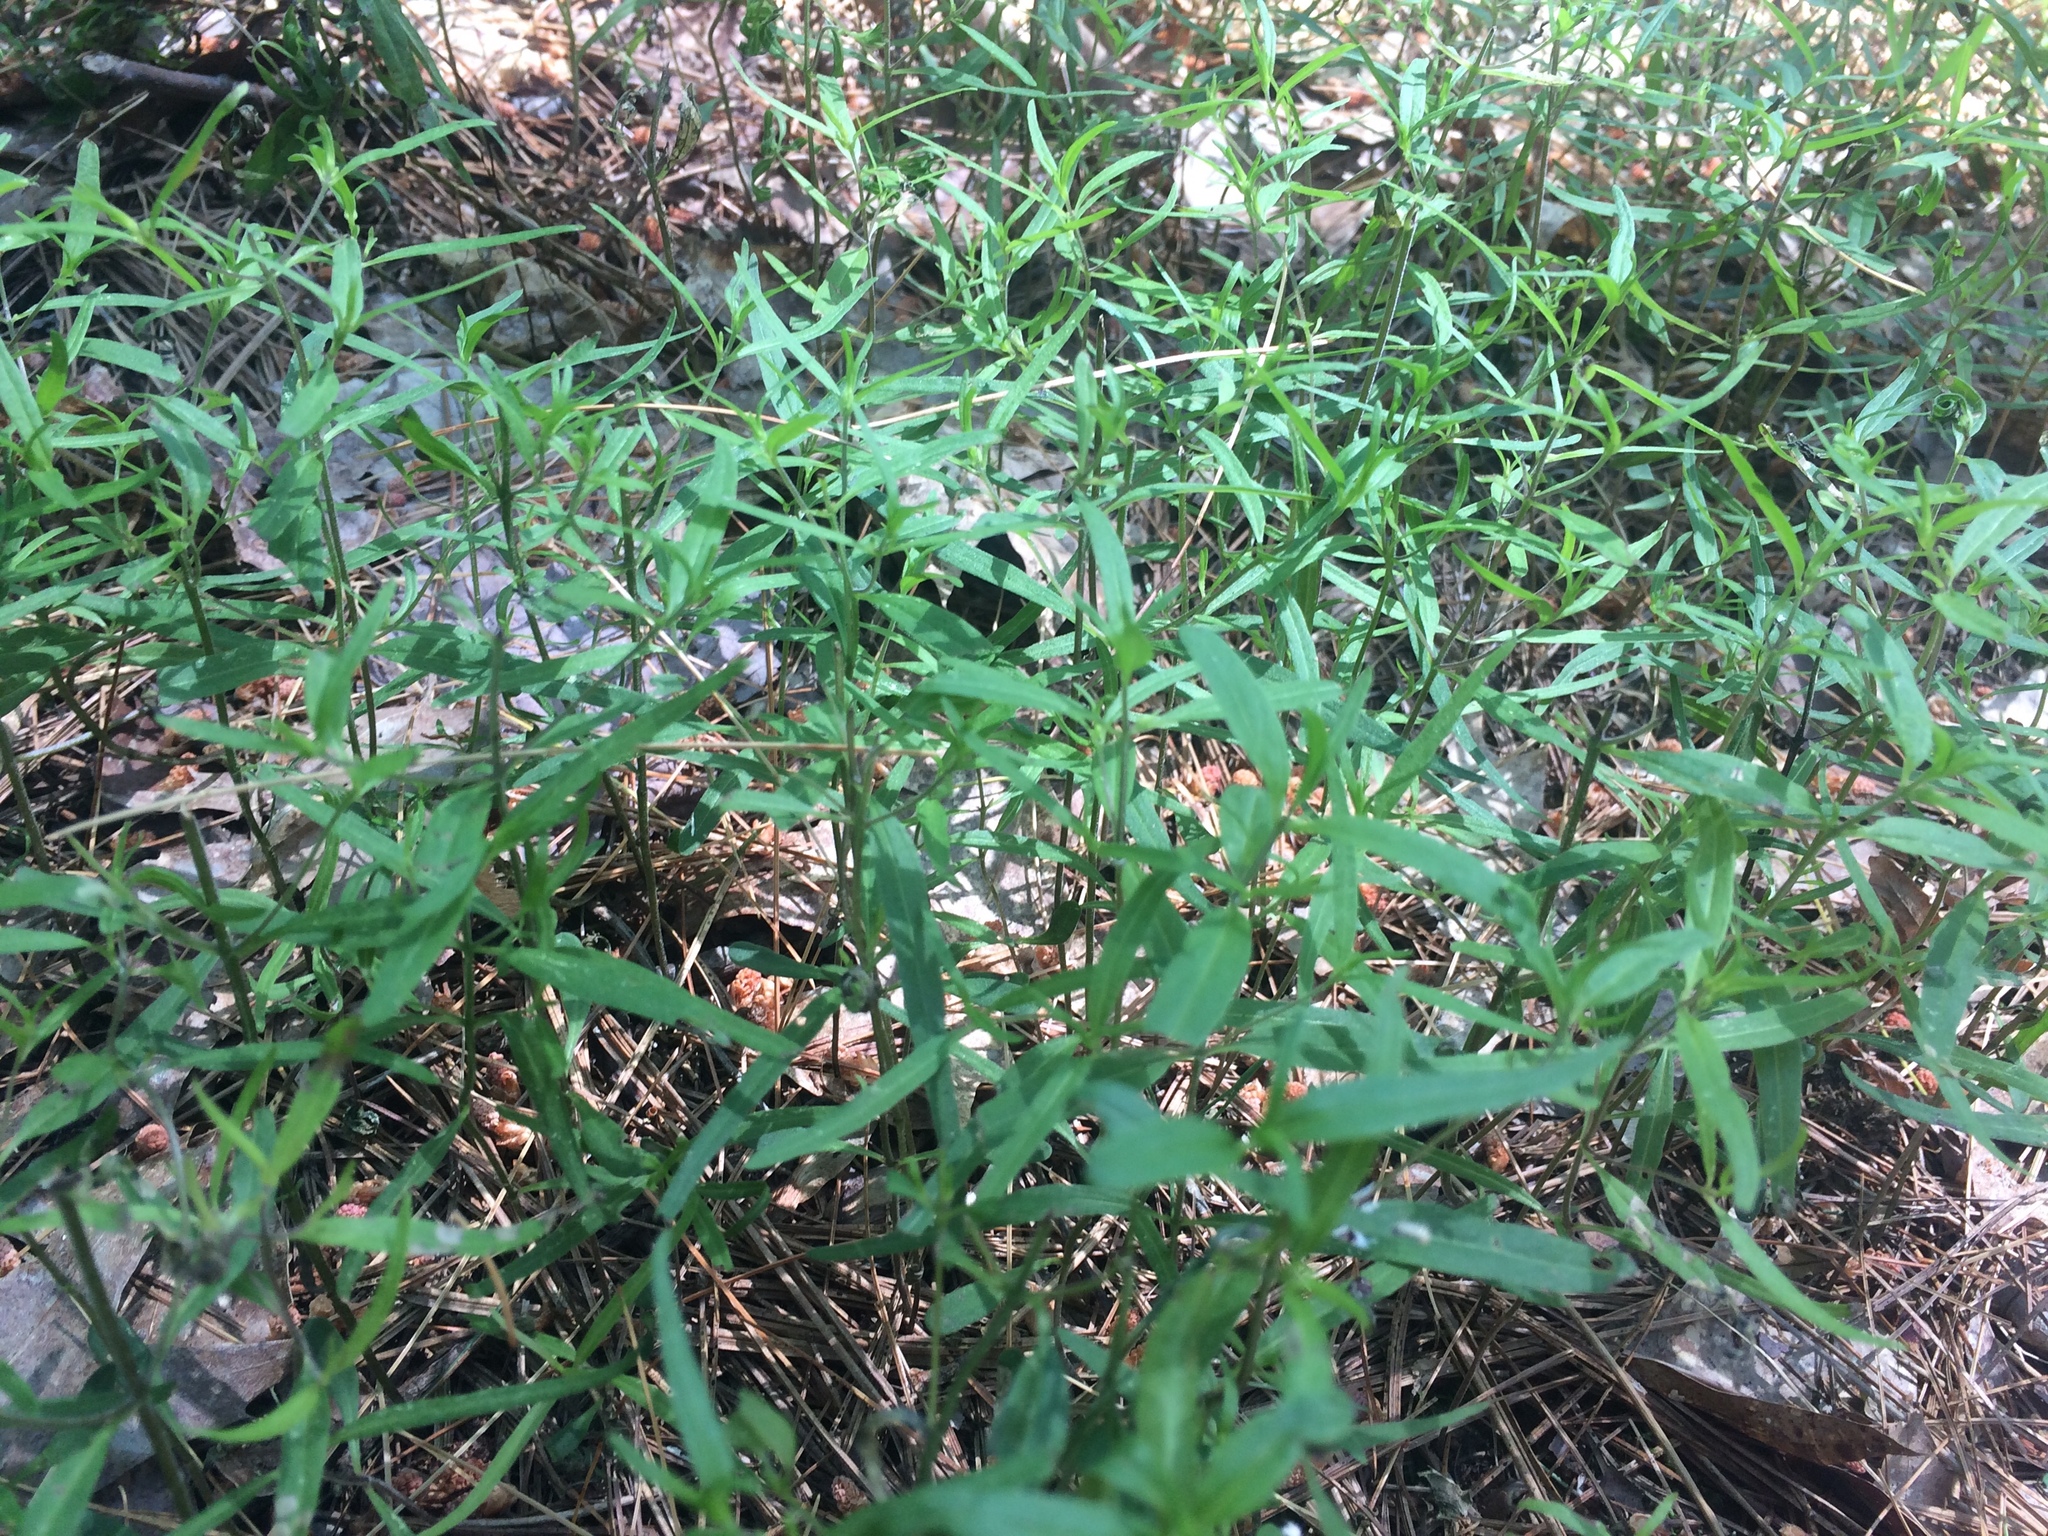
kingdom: Plantae
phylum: Tracheophyta
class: Magnoliopsida
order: Lamiales
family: Orobanchaceae
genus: Melampyrum
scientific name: Melampyrum lineare
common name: American cow-wheat
